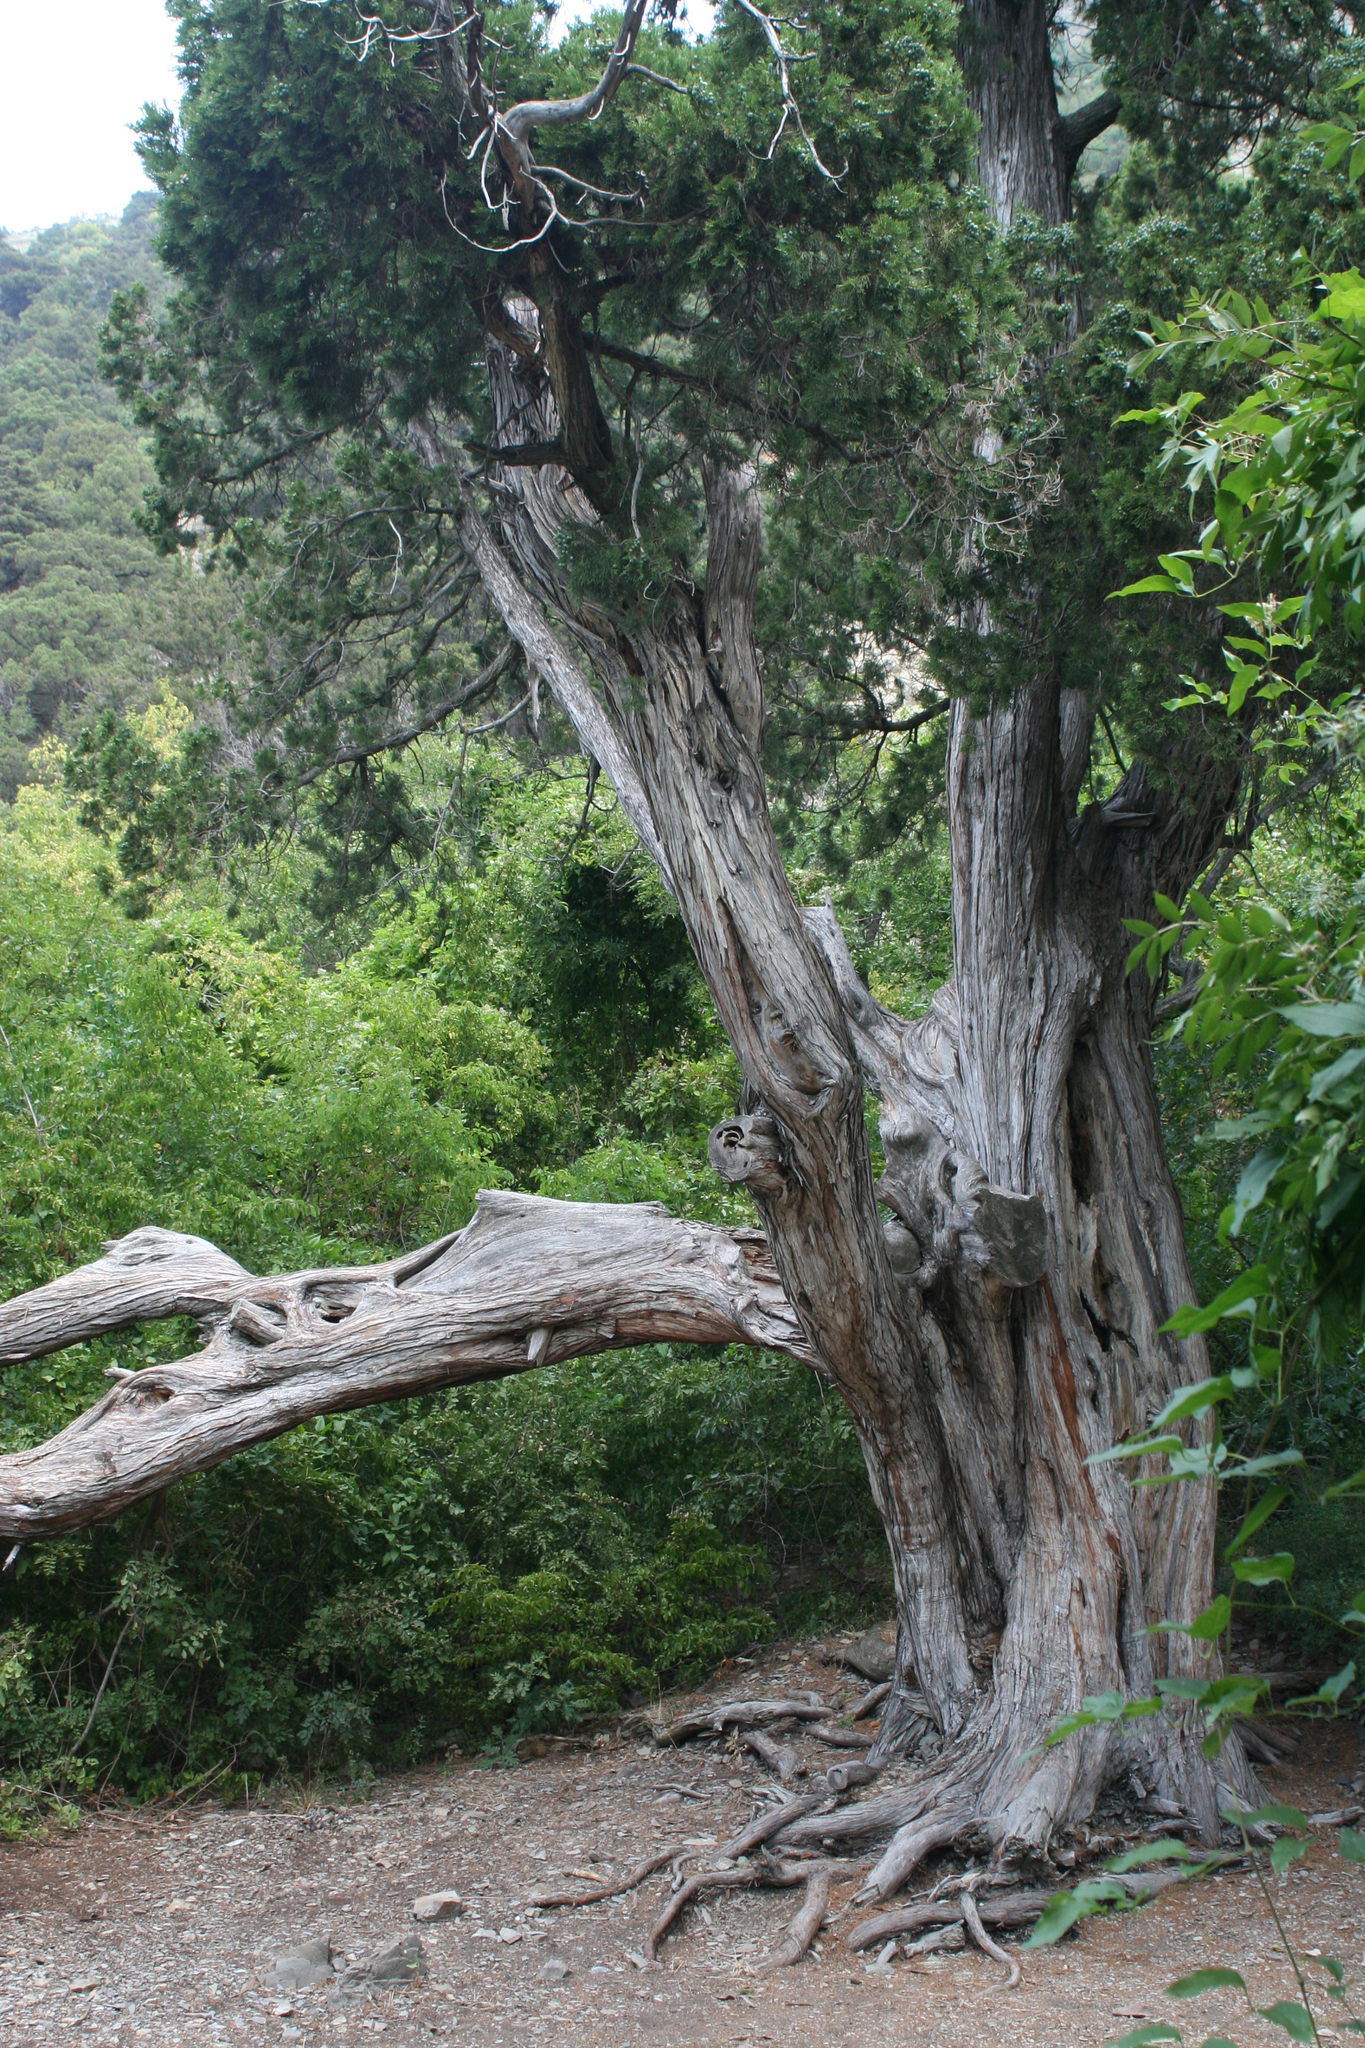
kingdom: Plantae
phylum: Tracheophyta
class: Pinopsida
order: Pinales
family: Cupressaceae
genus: Juniperus
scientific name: Juniperus excelsa
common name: Crimean juniper
